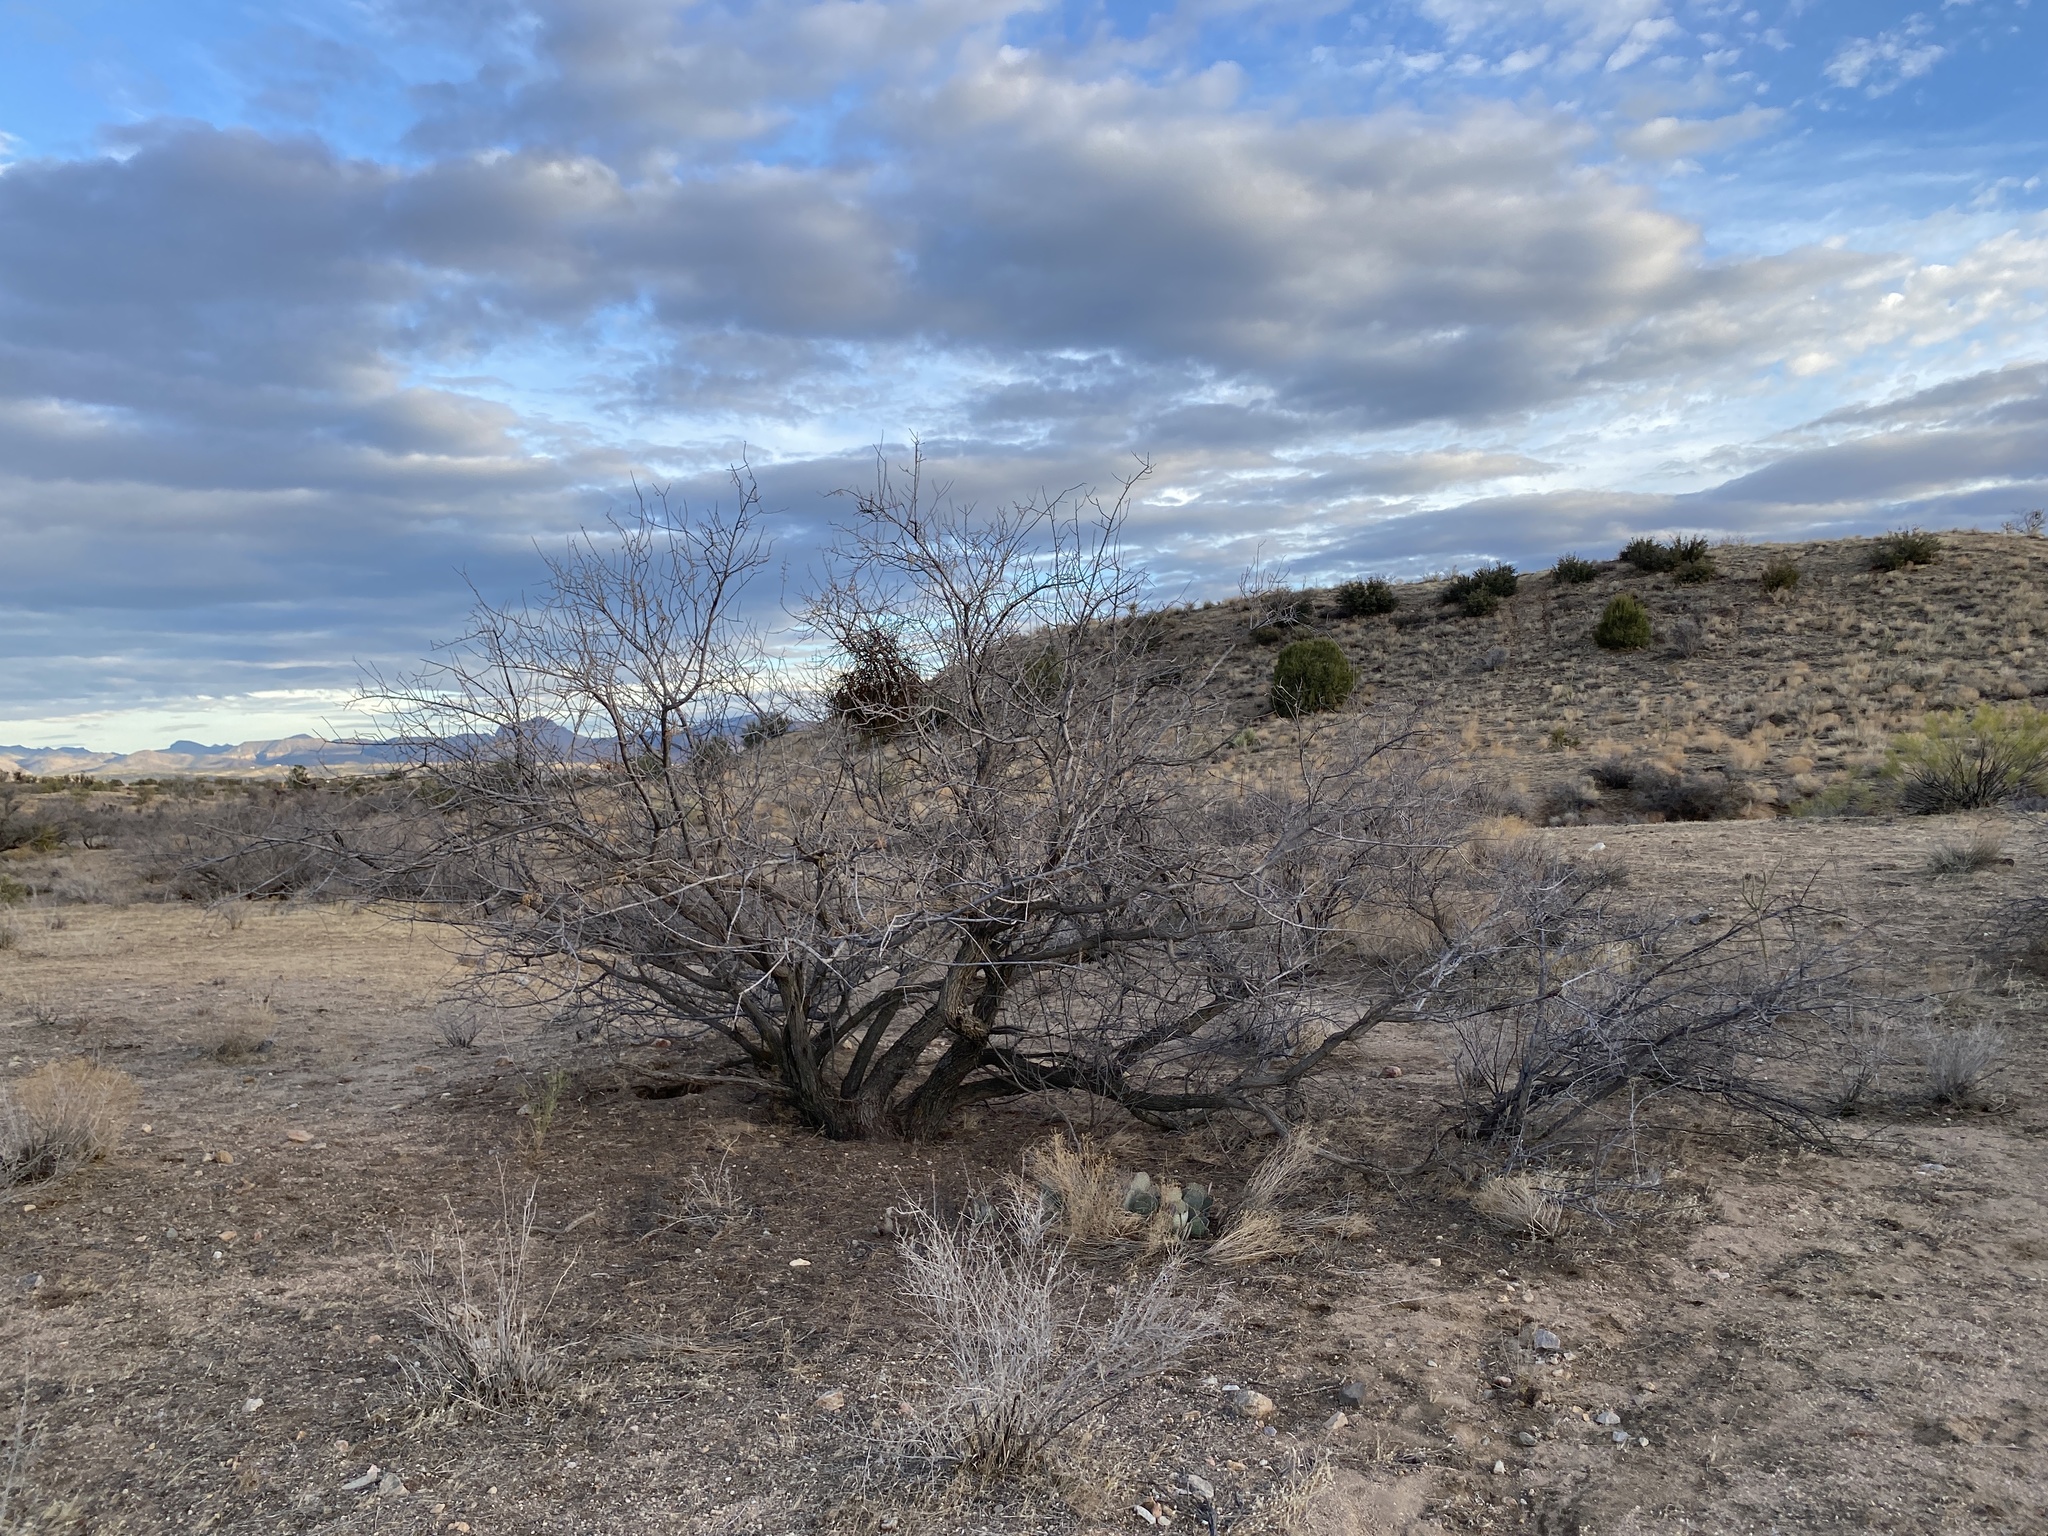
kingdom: Plantae
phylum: Tracheophyta
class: Magnoliopsida
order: Fabales
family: Fabaceae
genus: Senegalia
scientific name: Senegalia greggii
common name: Texas-mimosa
